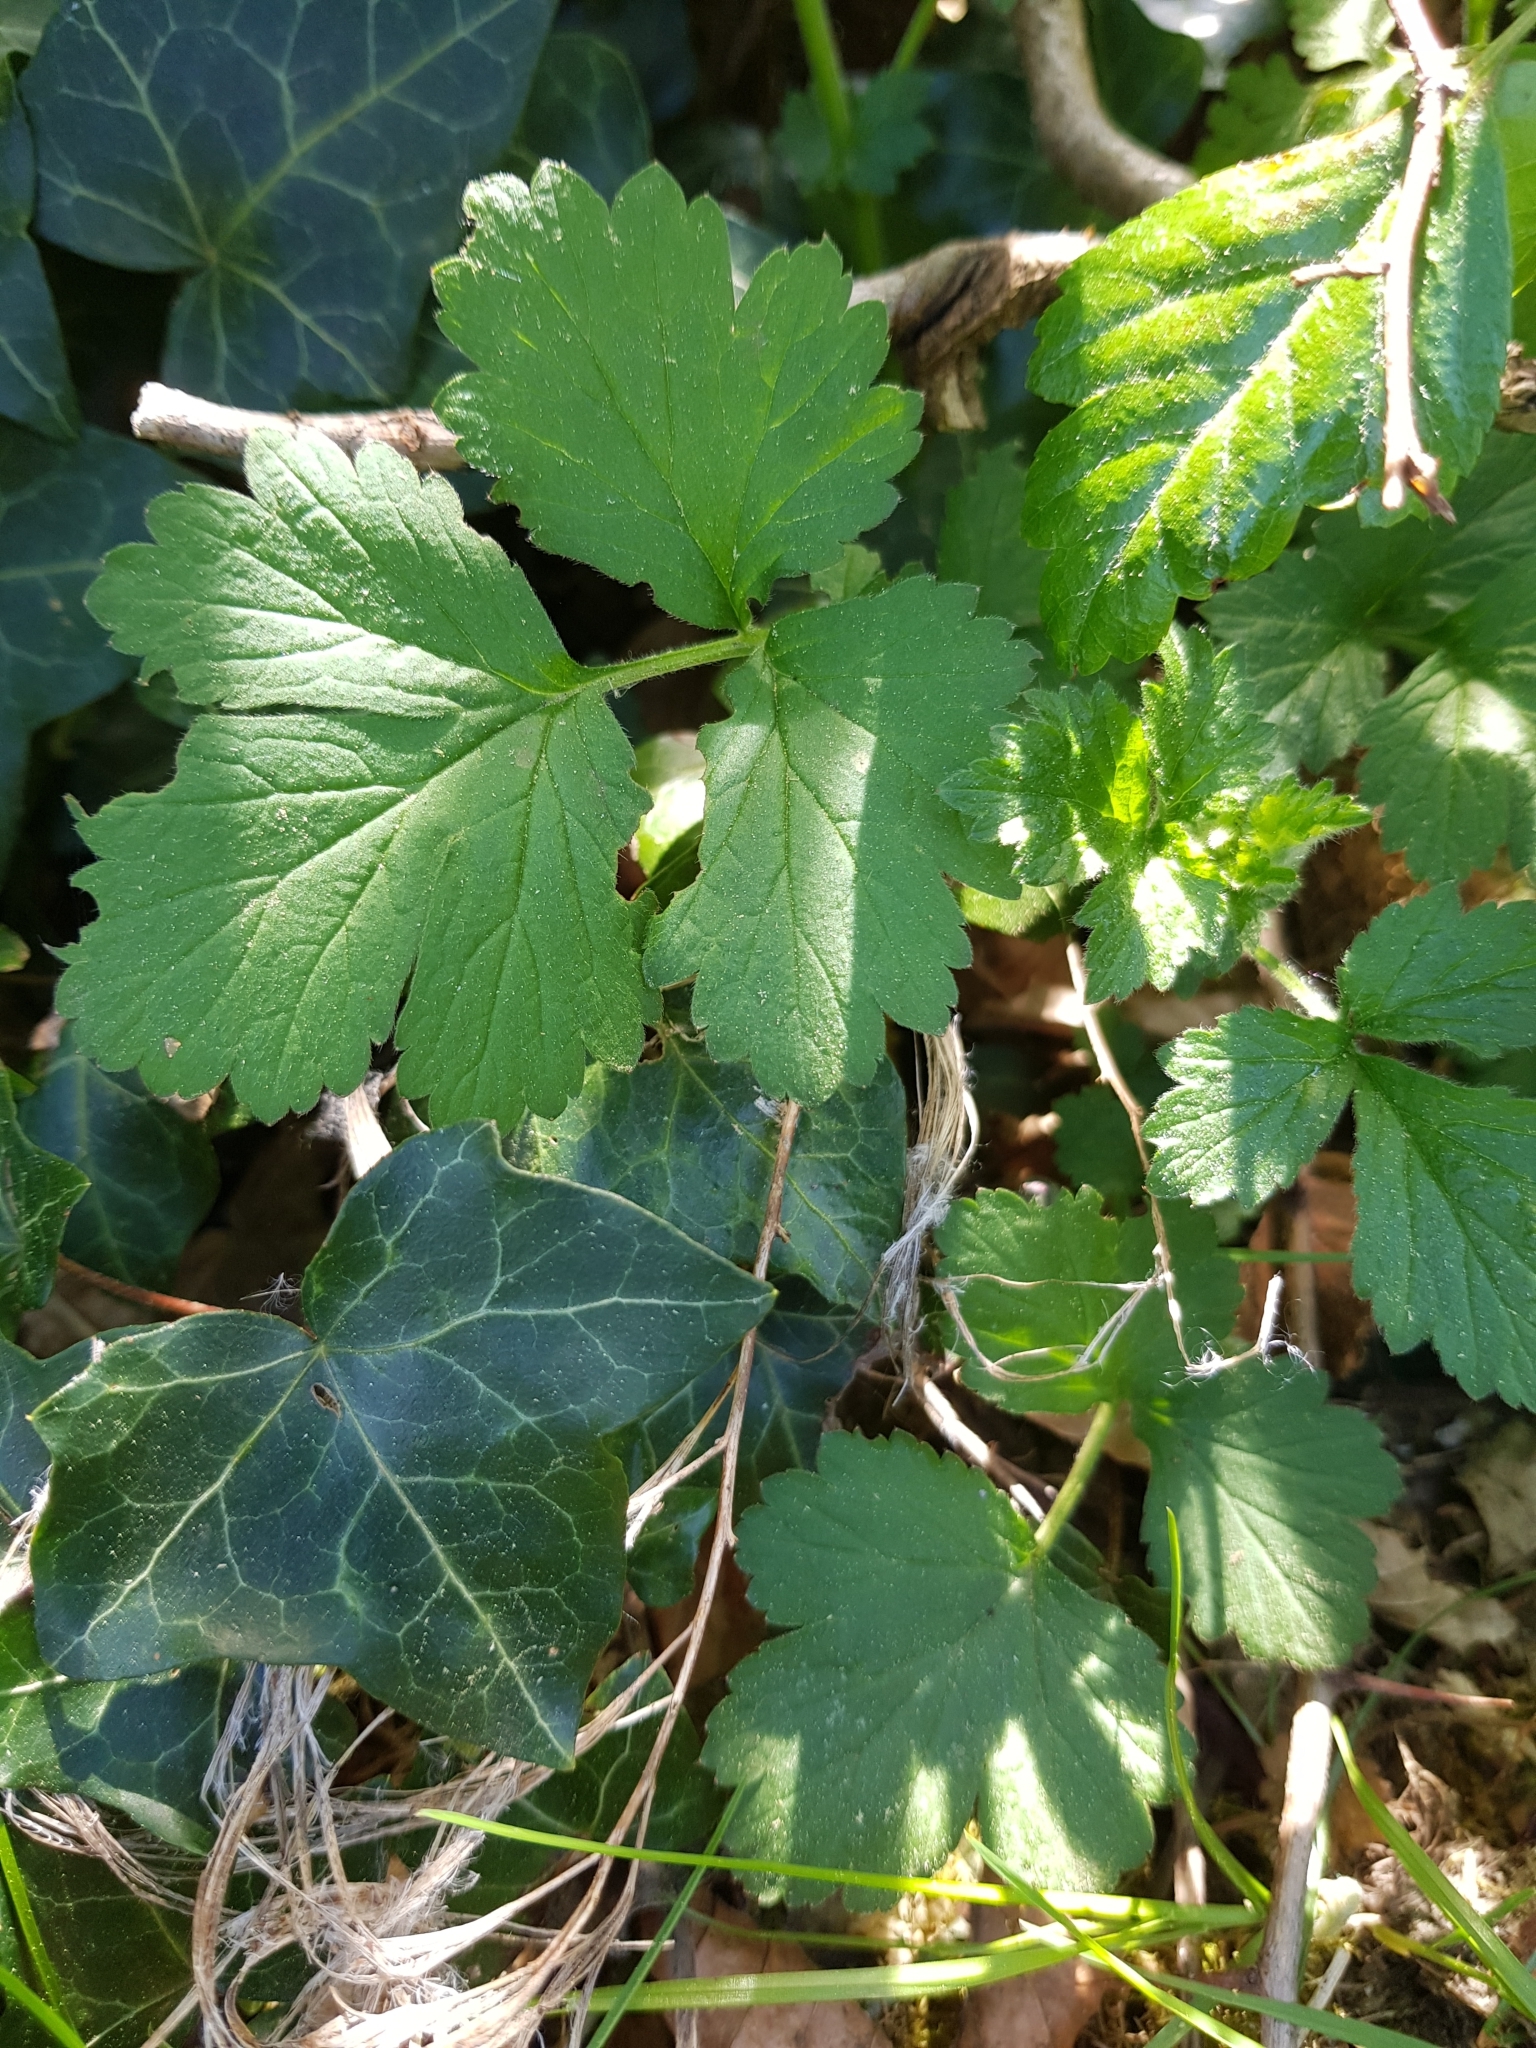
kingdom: Plantae
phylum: Tracheophyta
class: Magnoliopsida
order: Rosales
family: Rosaceae
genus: Geum
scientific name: Geum urbanum
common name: Wood avens
